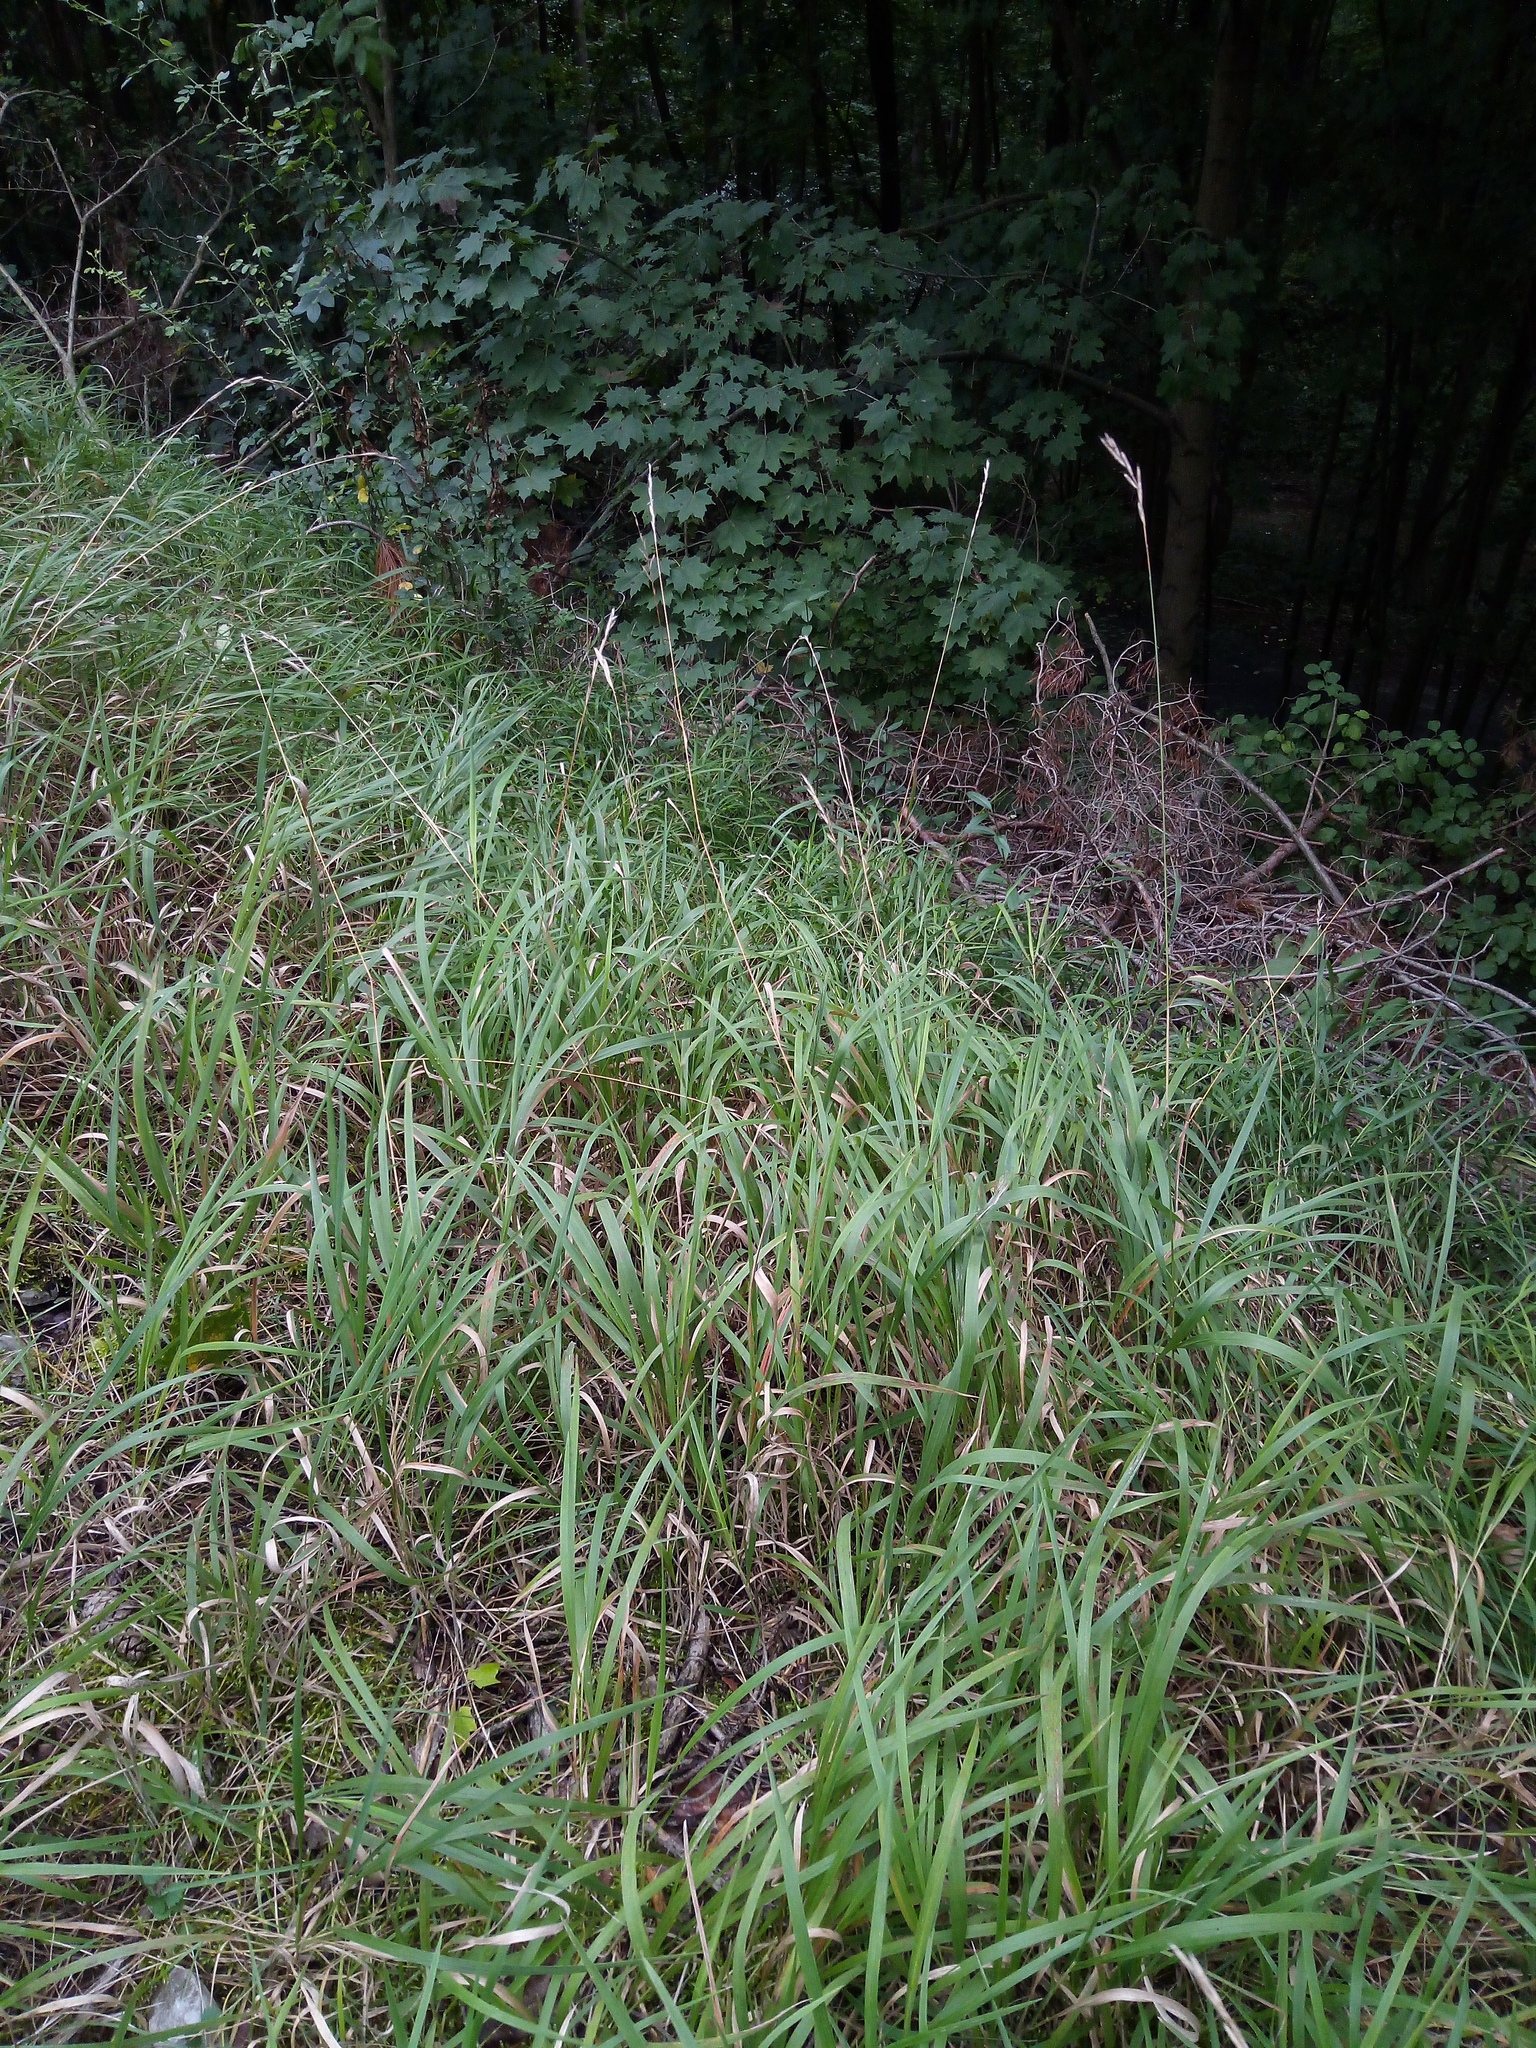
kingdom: Plantae
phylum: Tracheophyta
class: Liliopsida
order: Poales
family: Poaceae
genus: Brachypodium
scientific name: Brachypodium pinnatum
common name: Tor grass
